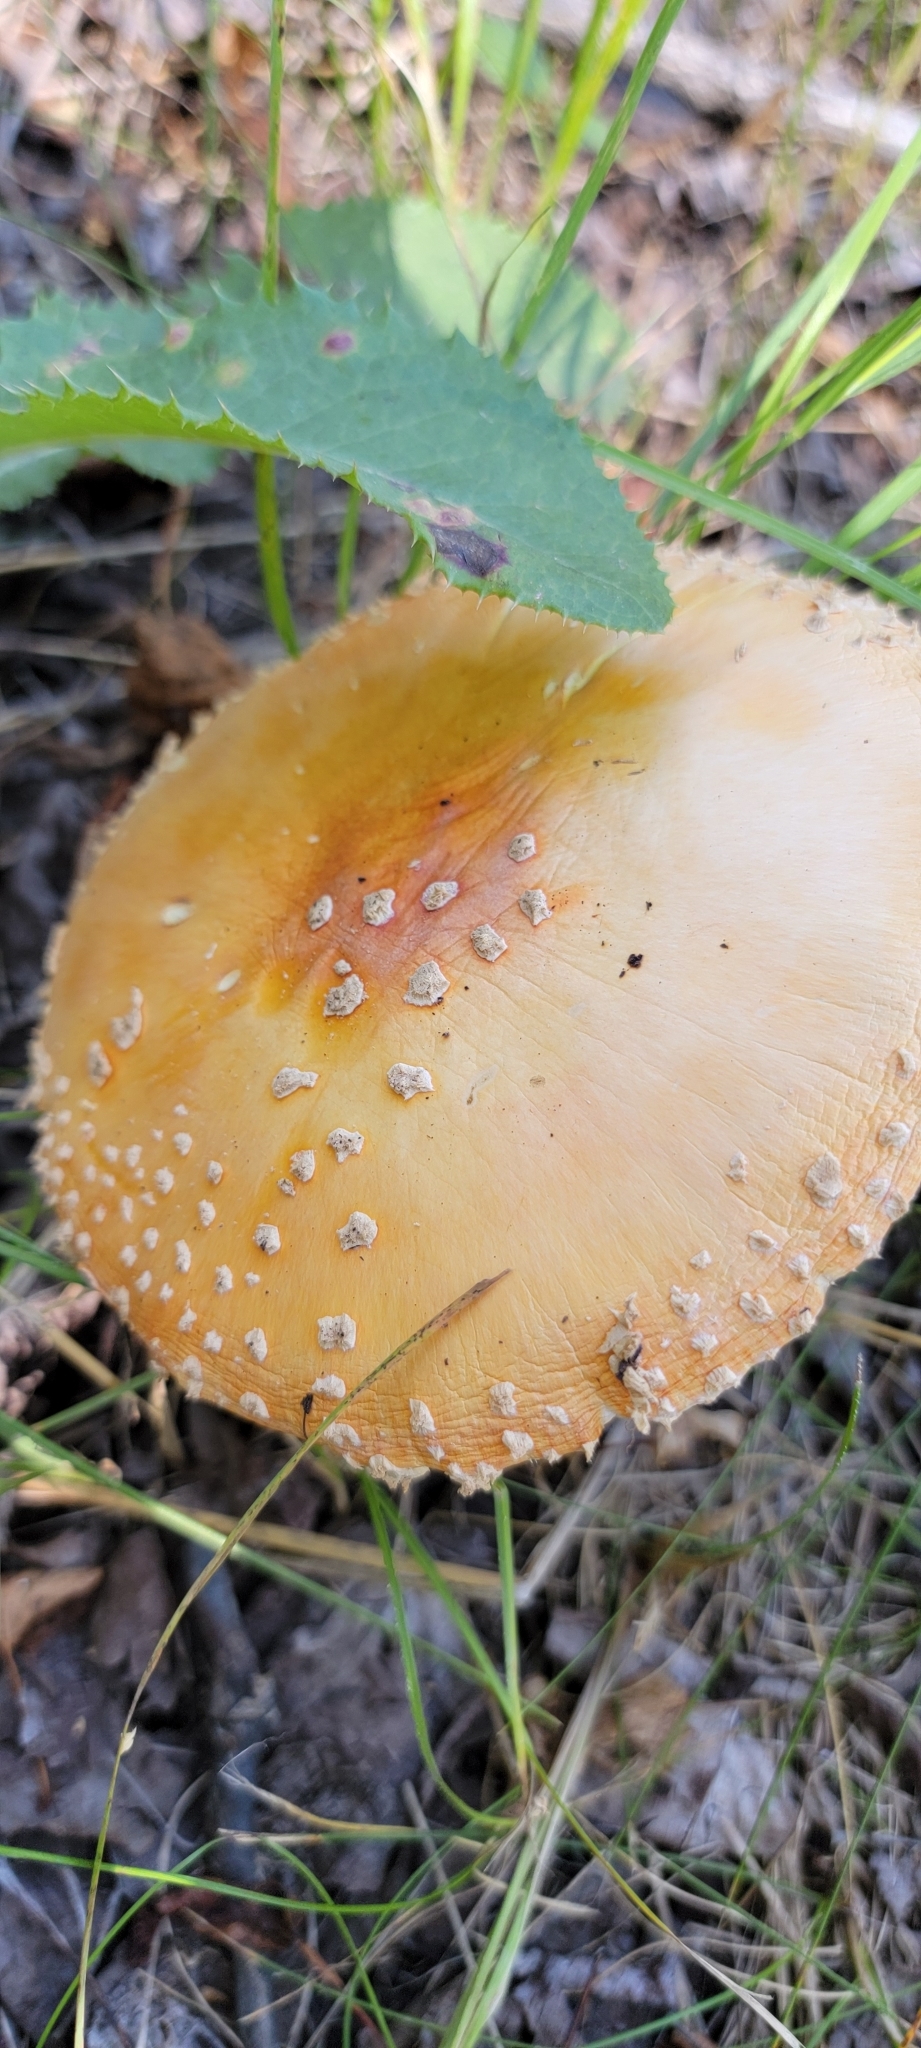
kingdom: Fungi
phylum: Basidiomycota
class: Agaricomycetes
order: Agaricales
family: Amanitaceae
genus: Amanita
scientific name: Amanita muscaria
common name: Fly agaric
